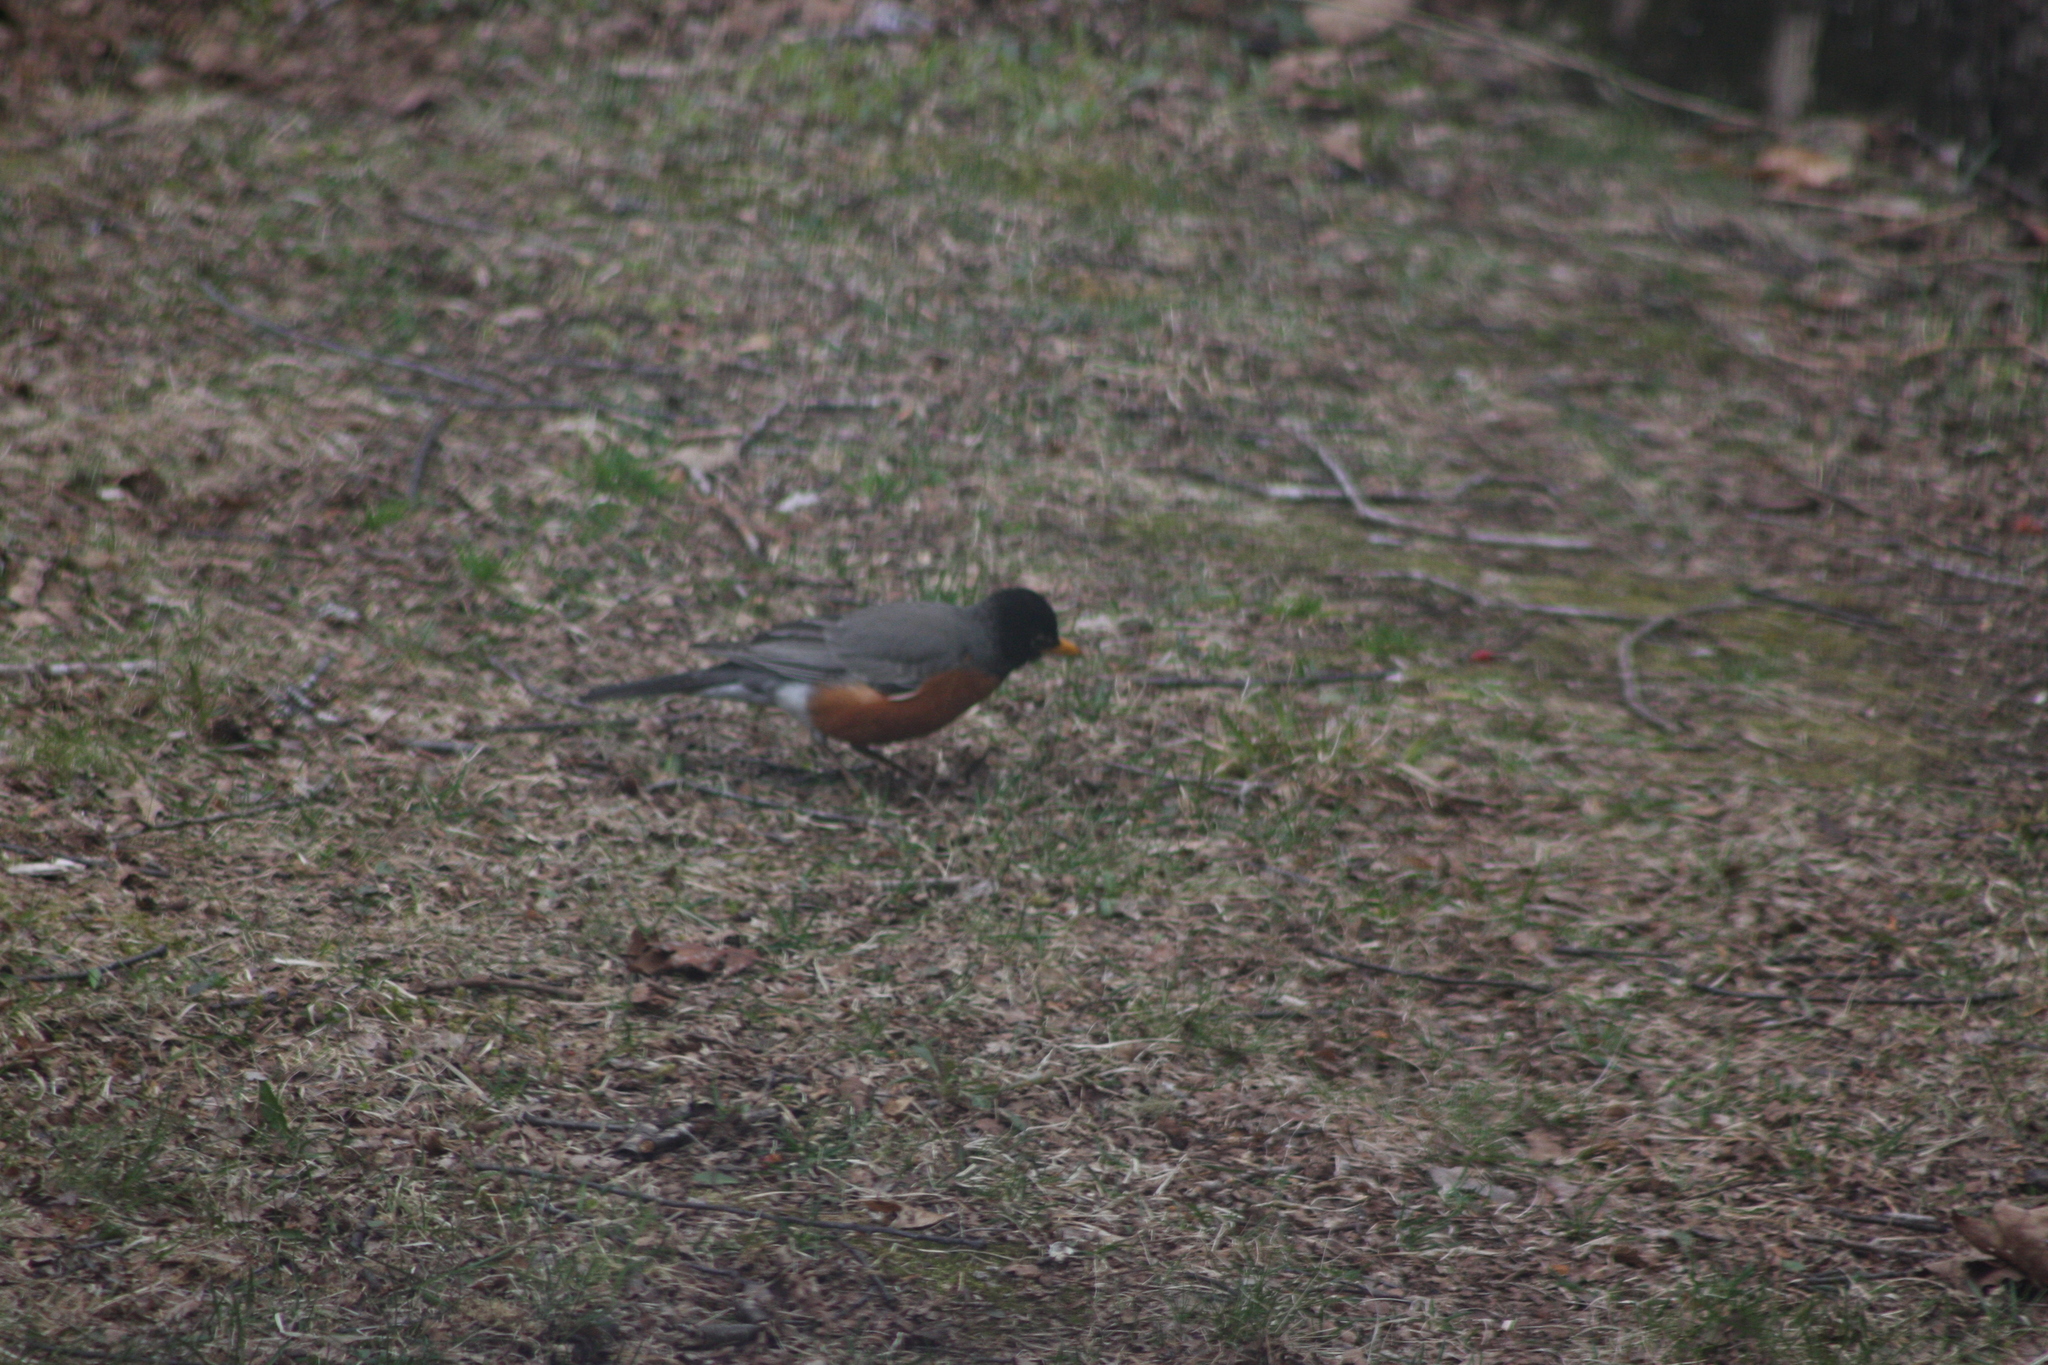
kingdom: Animalia
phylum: Chordata
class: Aves
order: Passeriformes
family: Turdidae
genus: Turdus
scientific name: Turdus migratorius
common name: American robin
